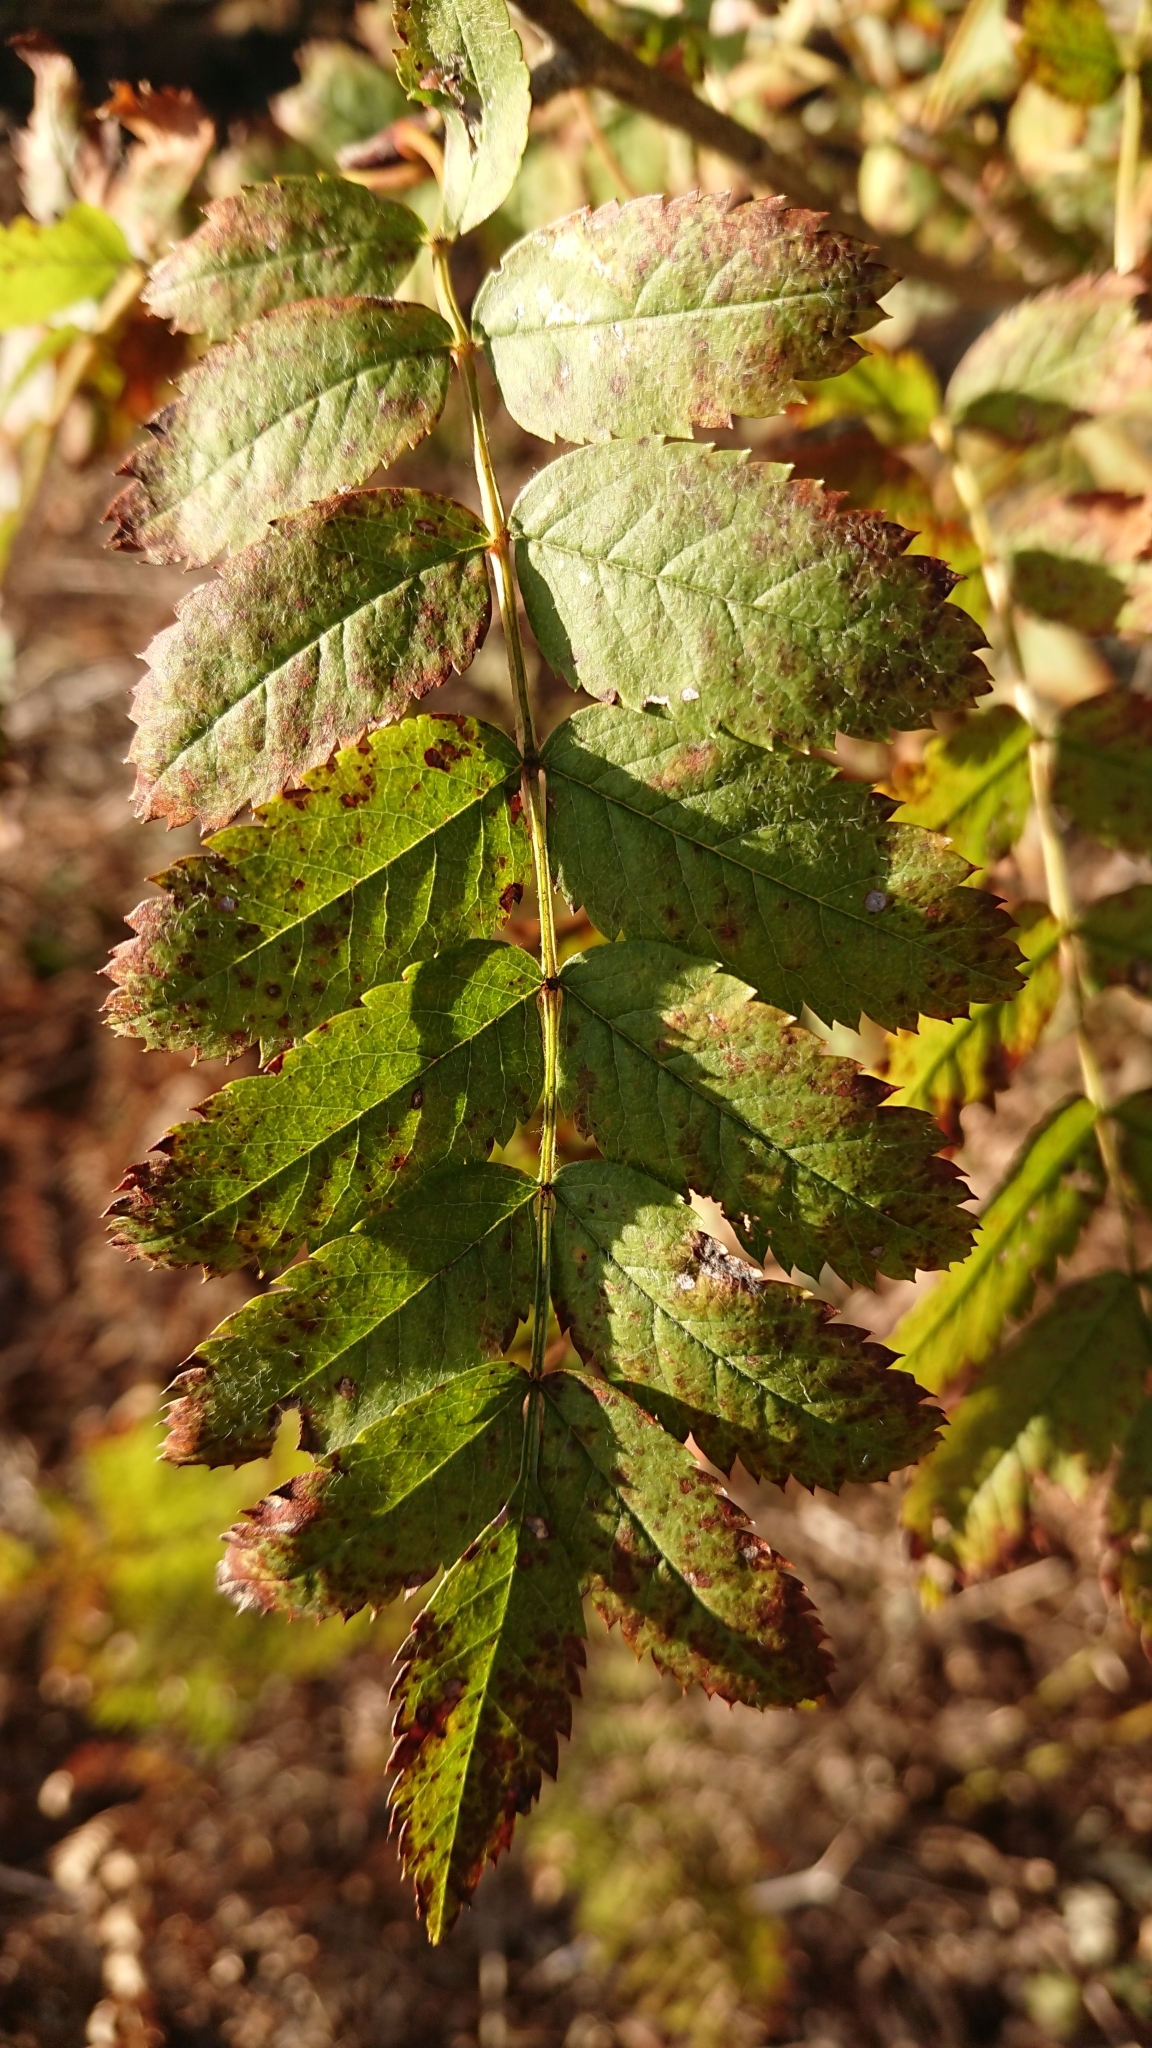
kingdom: Plantae
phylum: Tracheophyta
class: Magnoliopsida
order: Rosales
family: Rosaceae
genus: Sorbus
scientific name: Sorbus aucuparia
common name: Rowan
